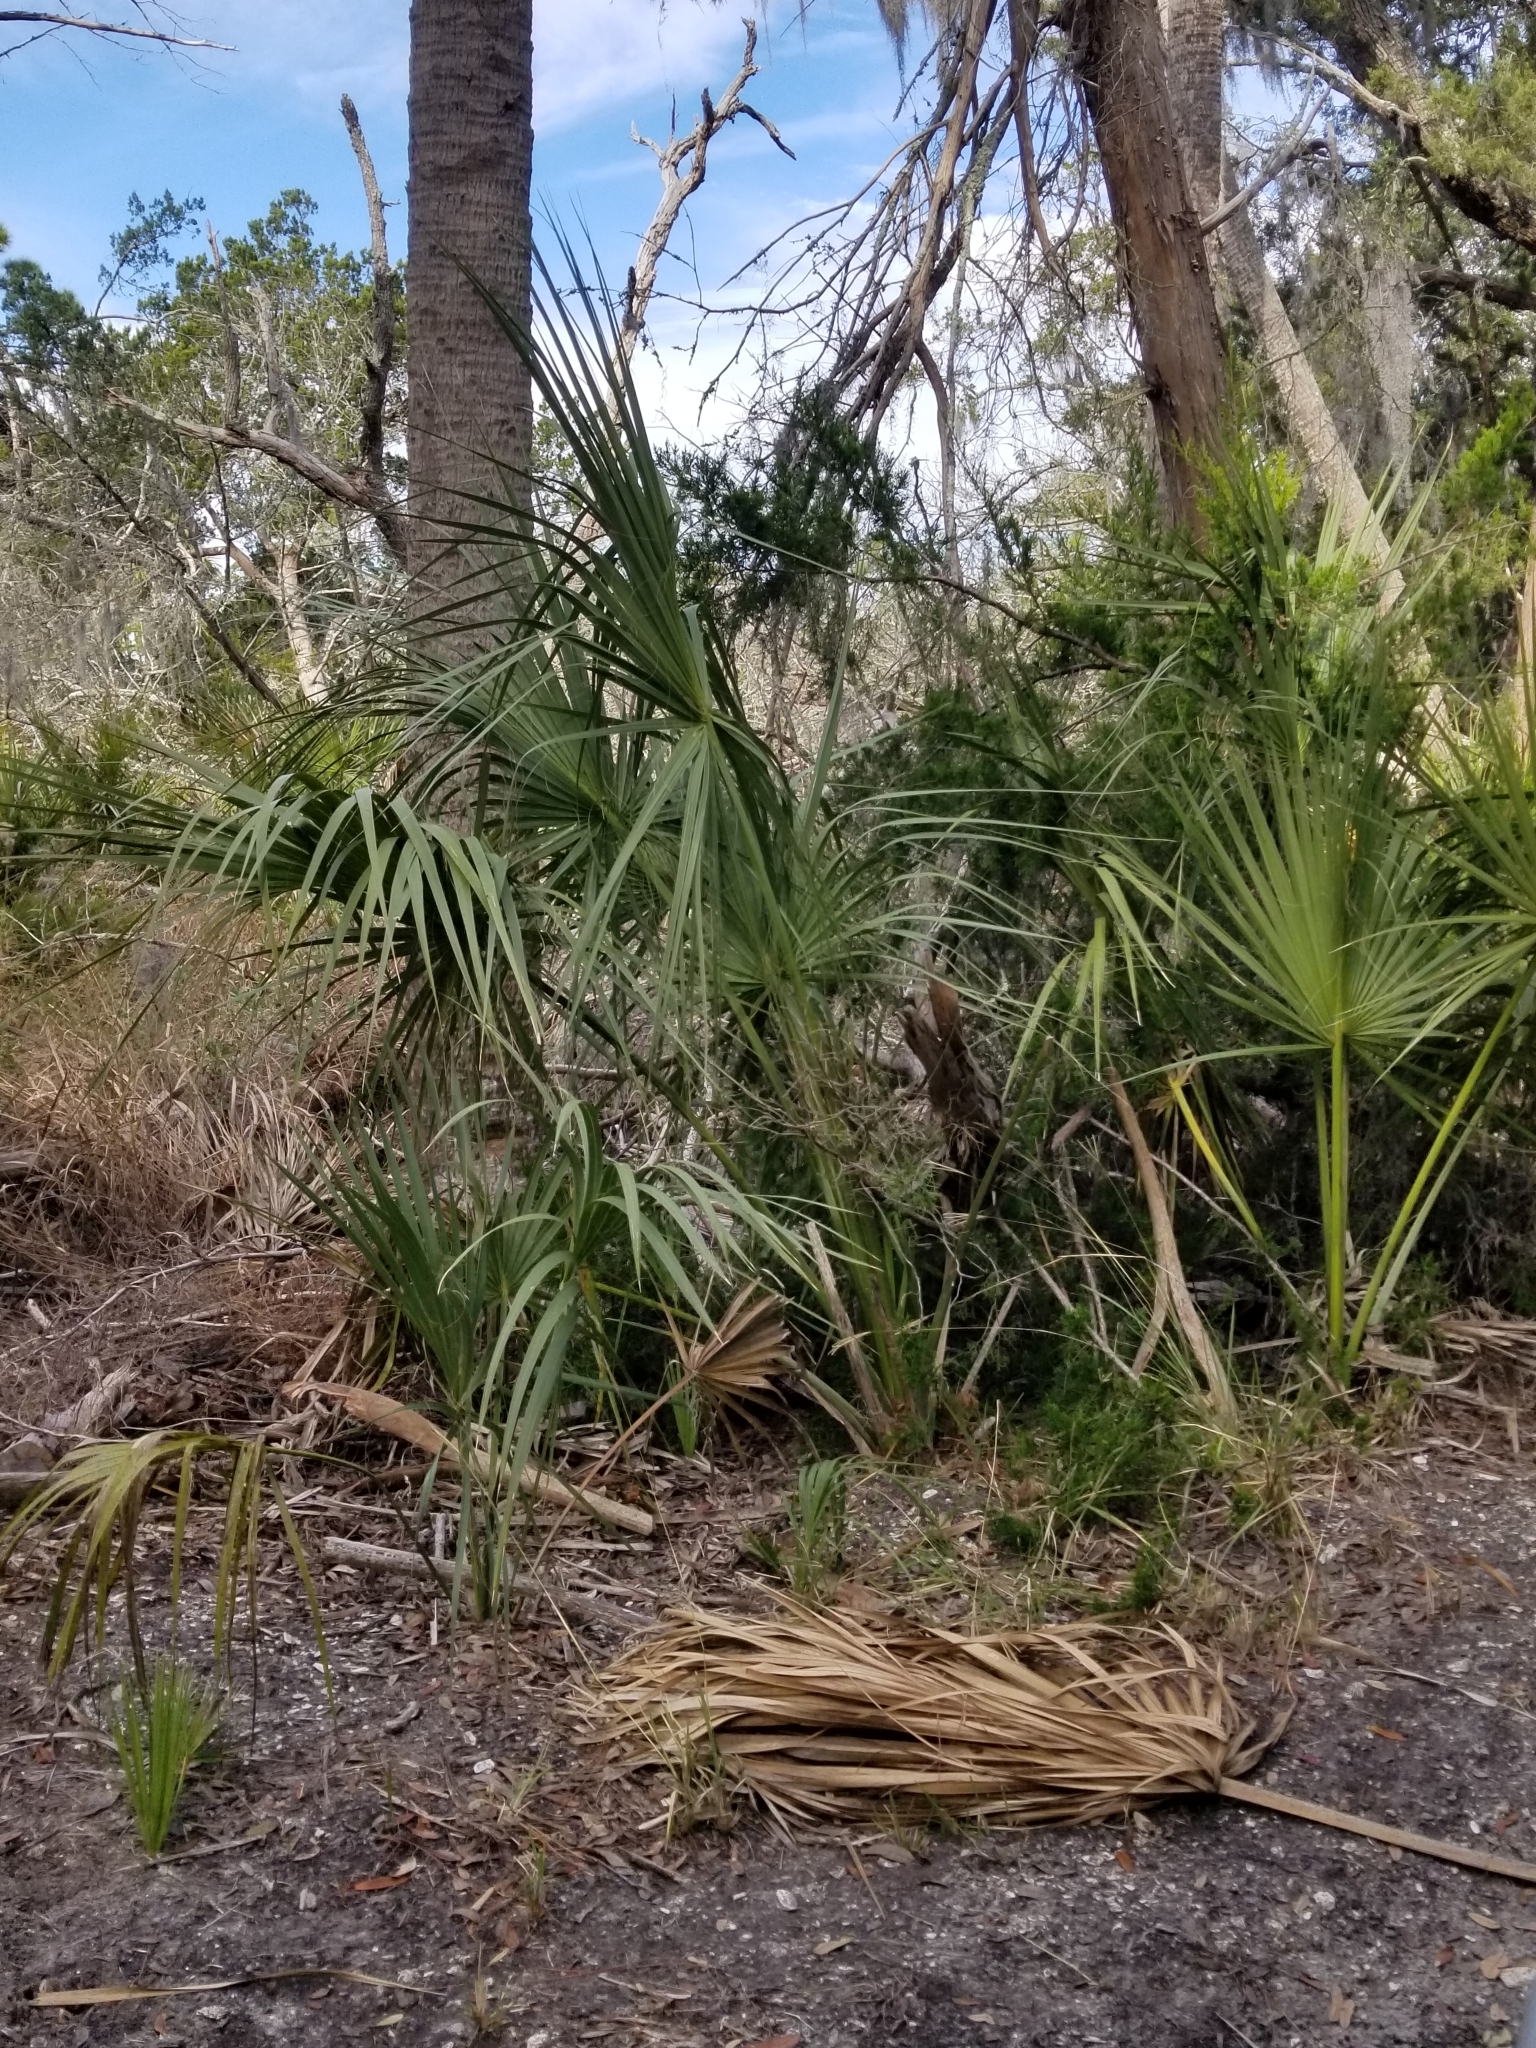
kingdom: Plantae
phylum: Tracheophyta
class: Liliopsida
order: Arecales
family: Arecaceae
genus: Sabal
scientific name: Sabal palmetto
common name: Blue palmetto
